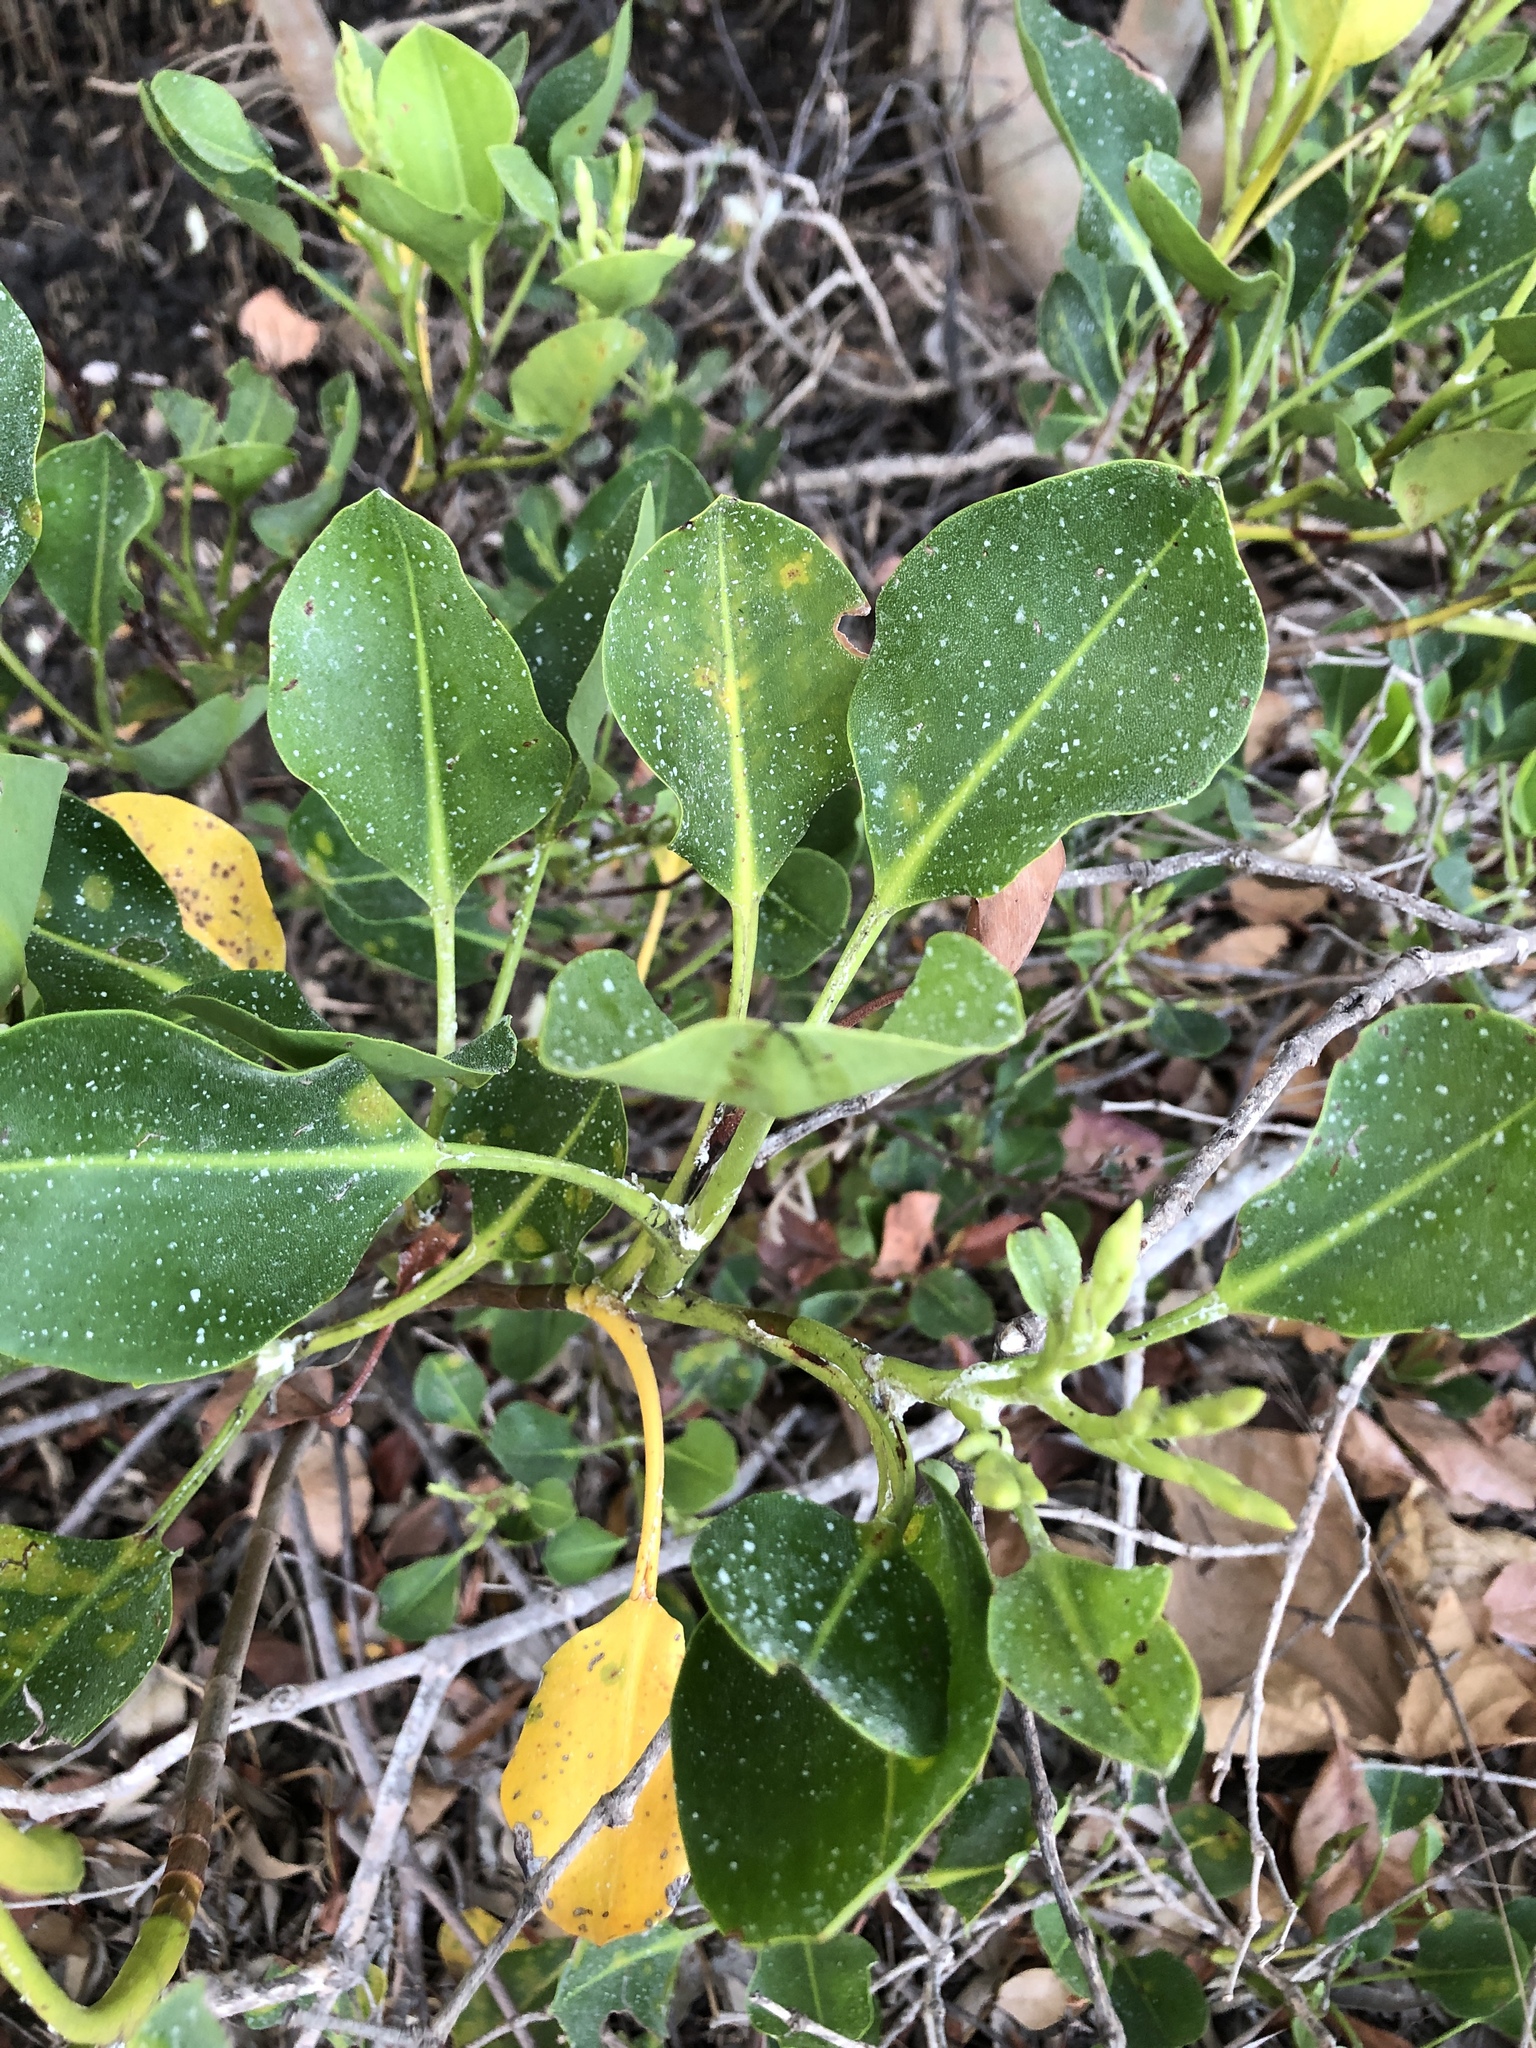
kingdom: Plantae
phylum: Tracheophyta
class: Magnoliopsida
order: Caryophyllales
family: Plumbaginaceae
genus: Aegialitis
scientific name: Aegialitis annulata
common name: Club mangrove
